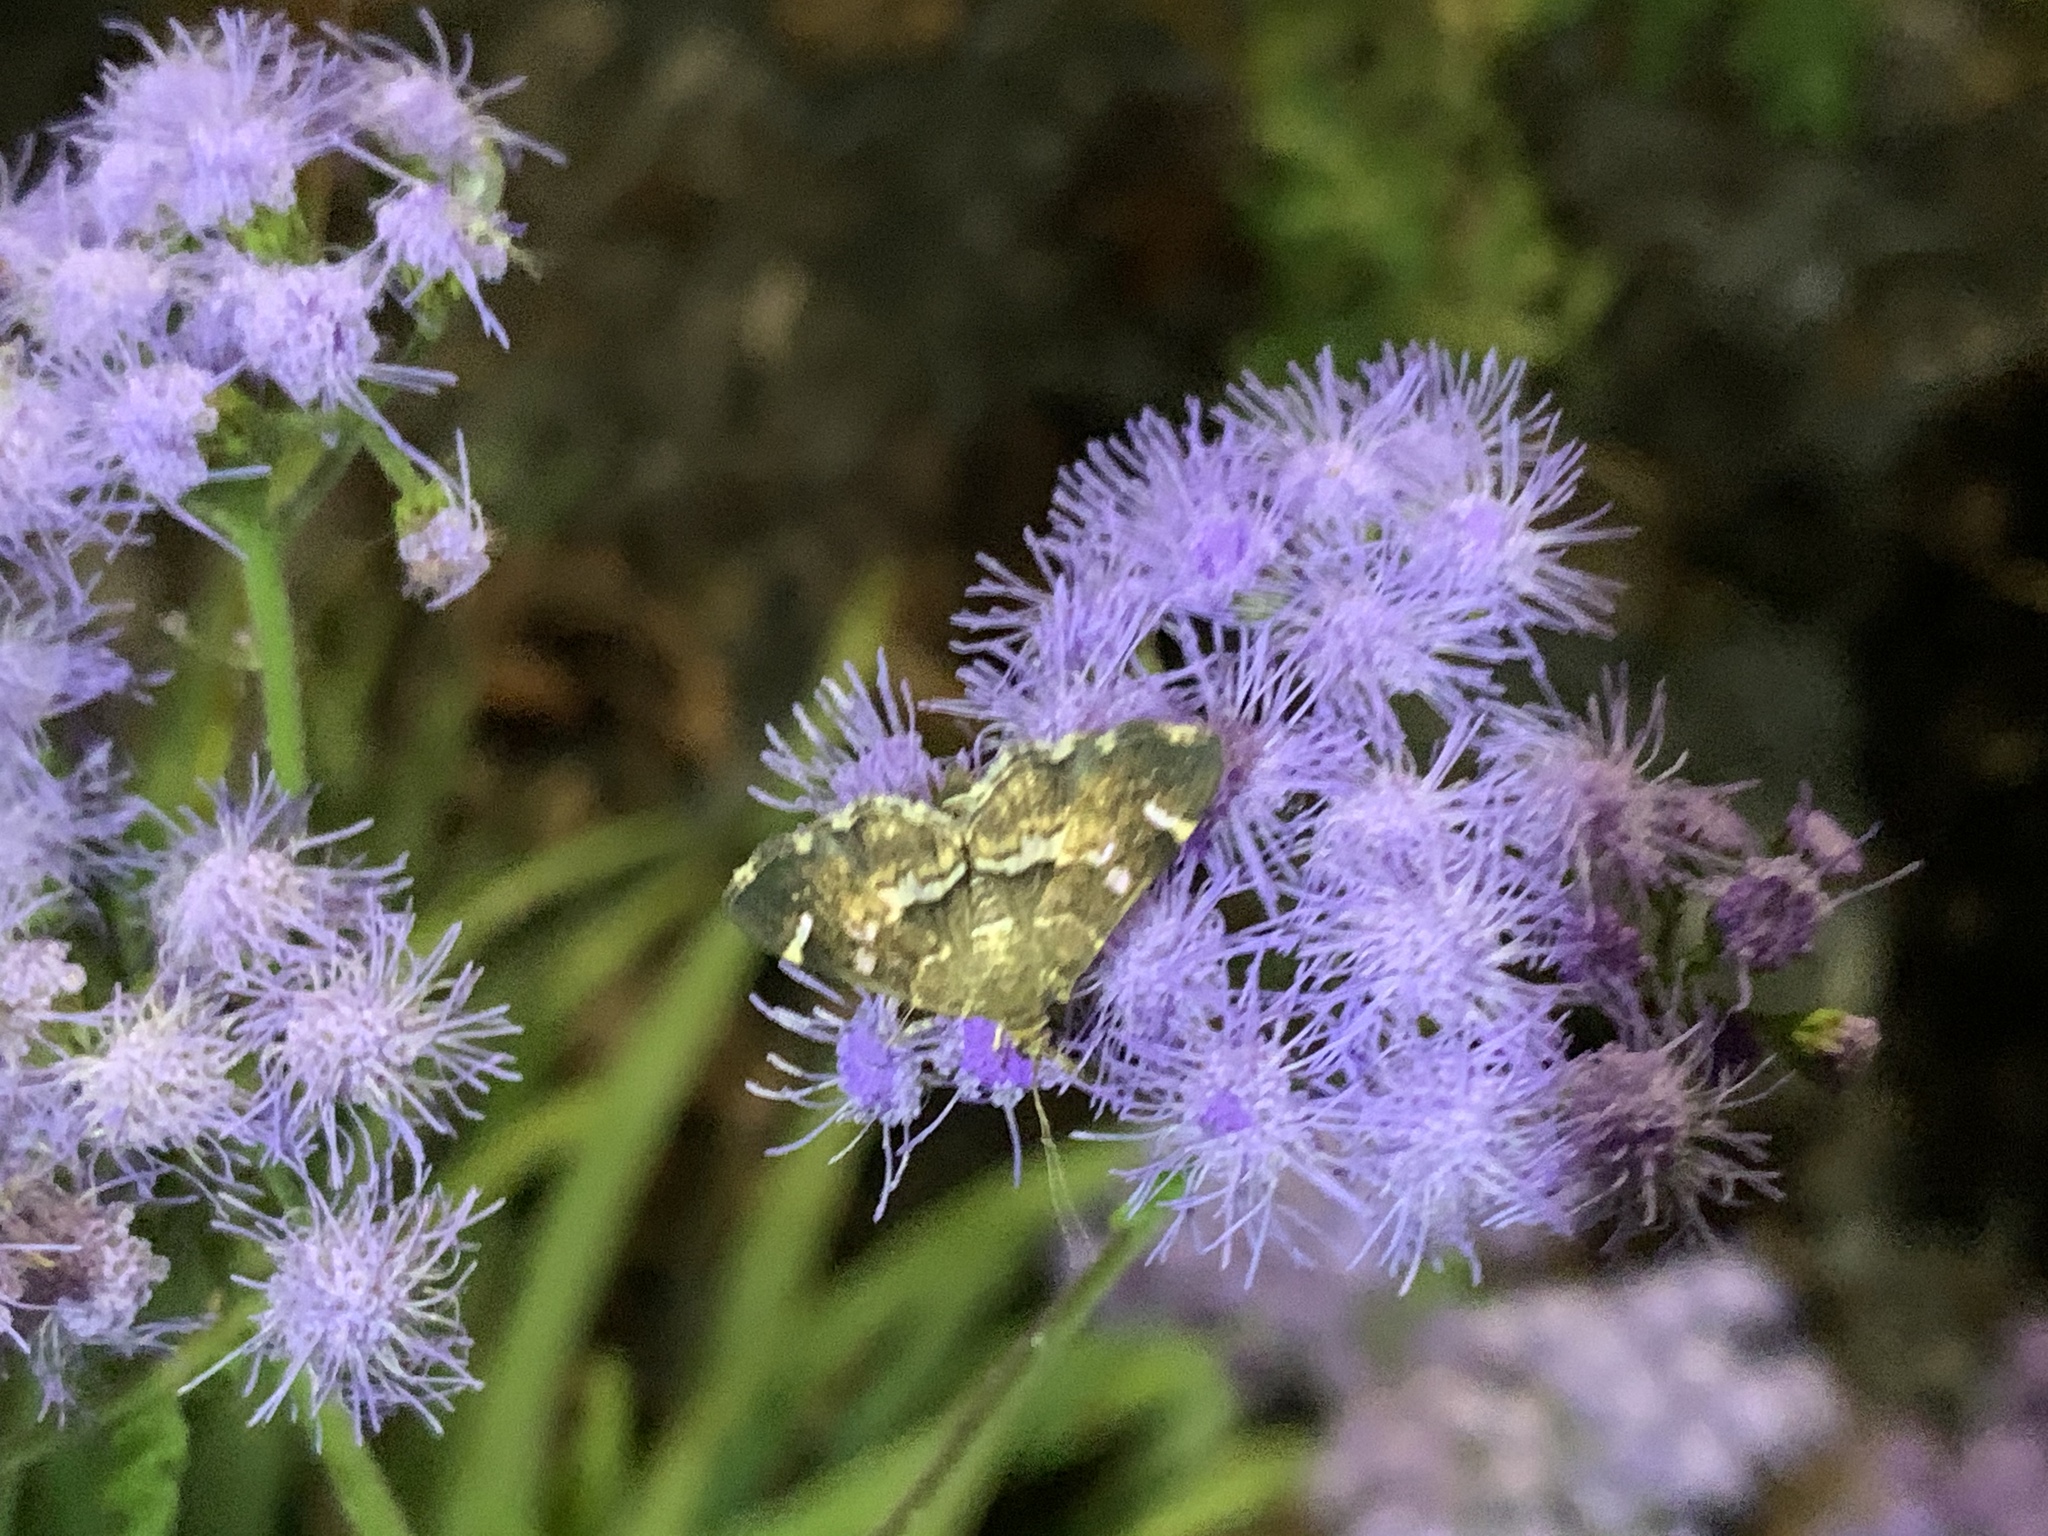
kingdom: Animalia
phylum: Arthropoda
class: Insecta
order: Lepidoptera
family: Crambidae
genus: Hymenia
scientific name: Hymenia perspectalis
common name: Spotted beet webworm
